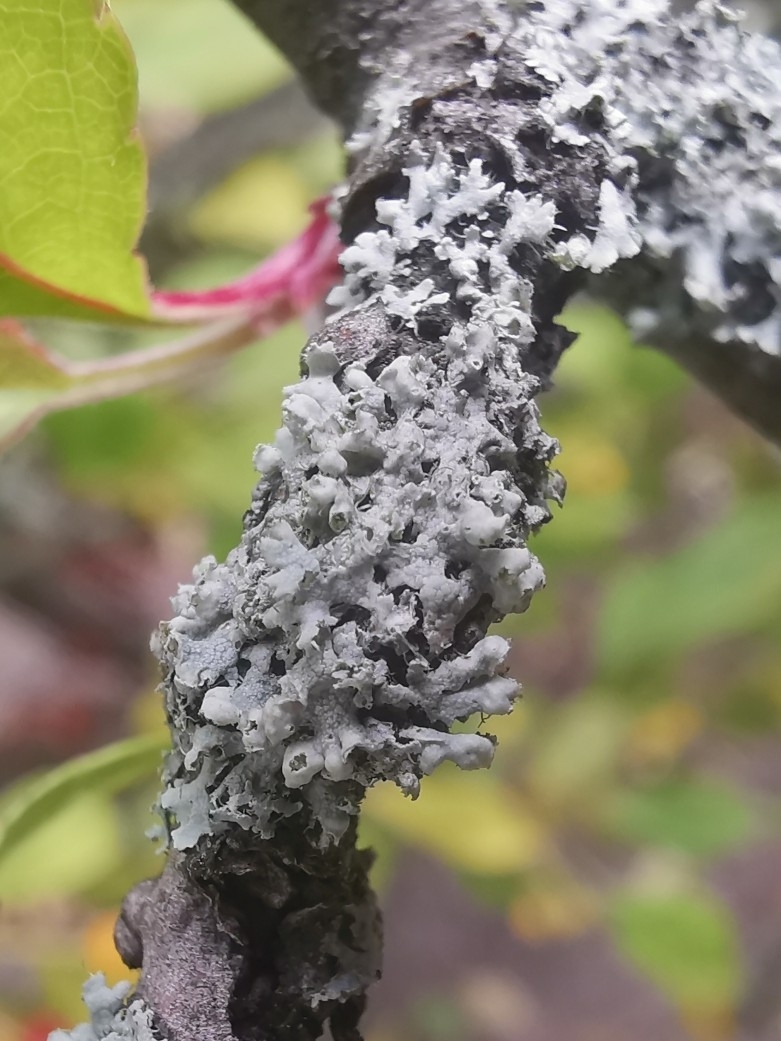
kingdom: Fungi
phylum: Ascomycota
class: Lecanoromycetes
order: Caliciales
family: Physciaceae
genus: Physcia
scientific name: Physcia adscendens
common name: Hooded rosette lichen
